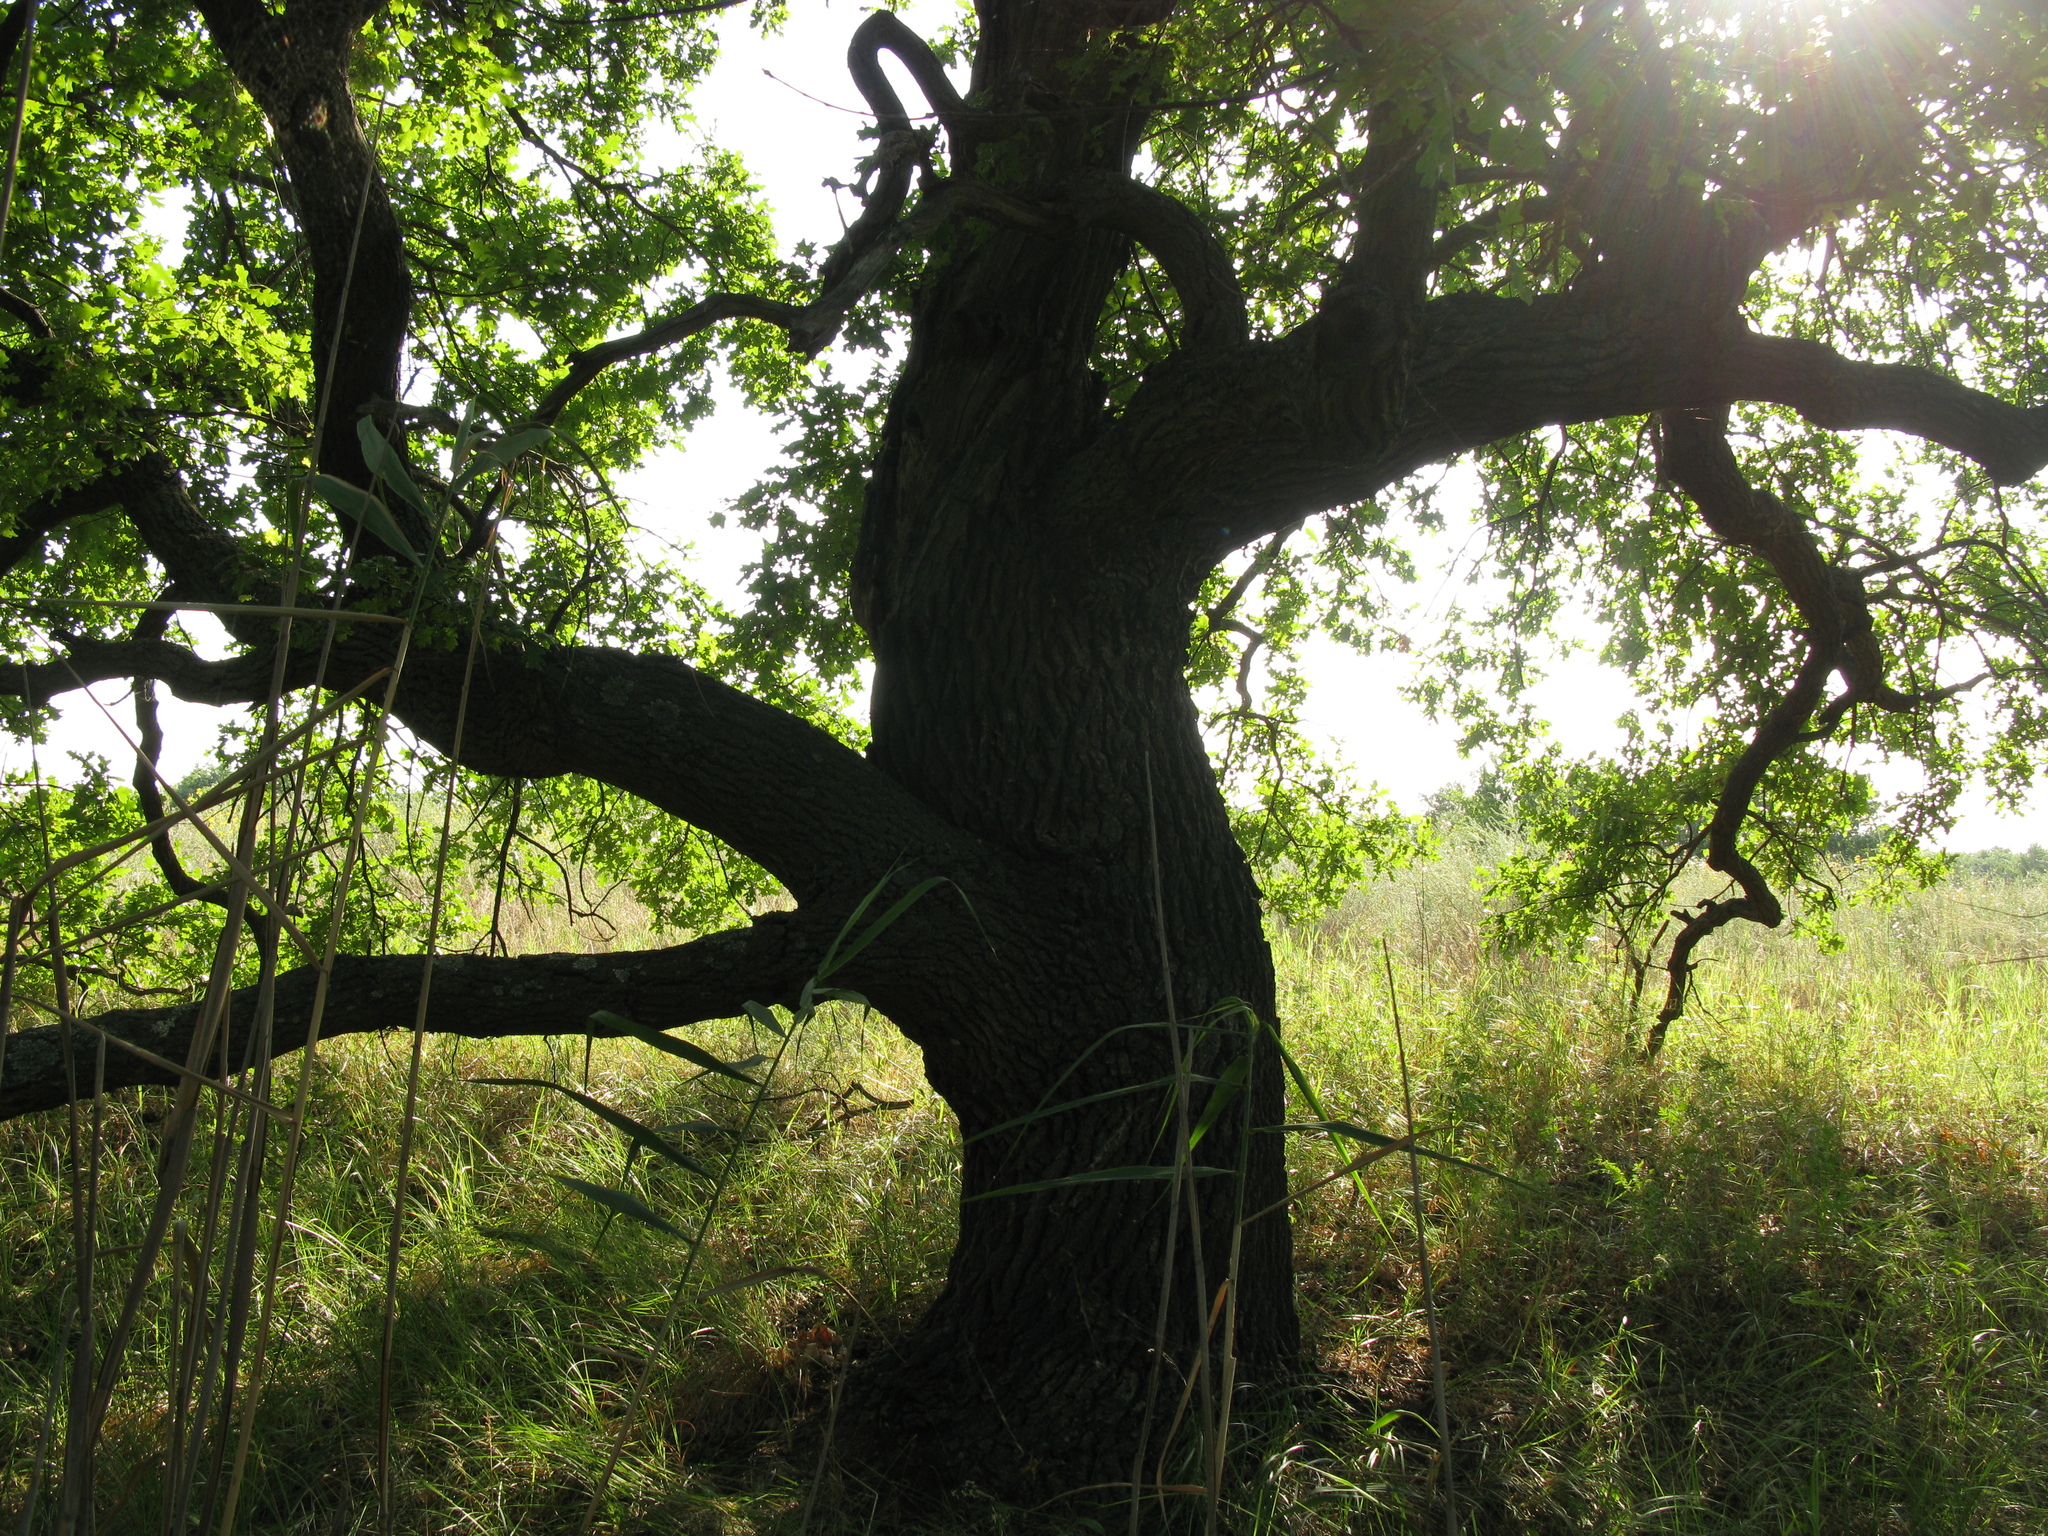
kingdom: Plantae
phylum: Tracheophyta
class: Magnoliopsida
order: Fagales
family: Fagaceae
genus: Quercus
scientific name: Quercus robur
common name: Pedunculate oak
